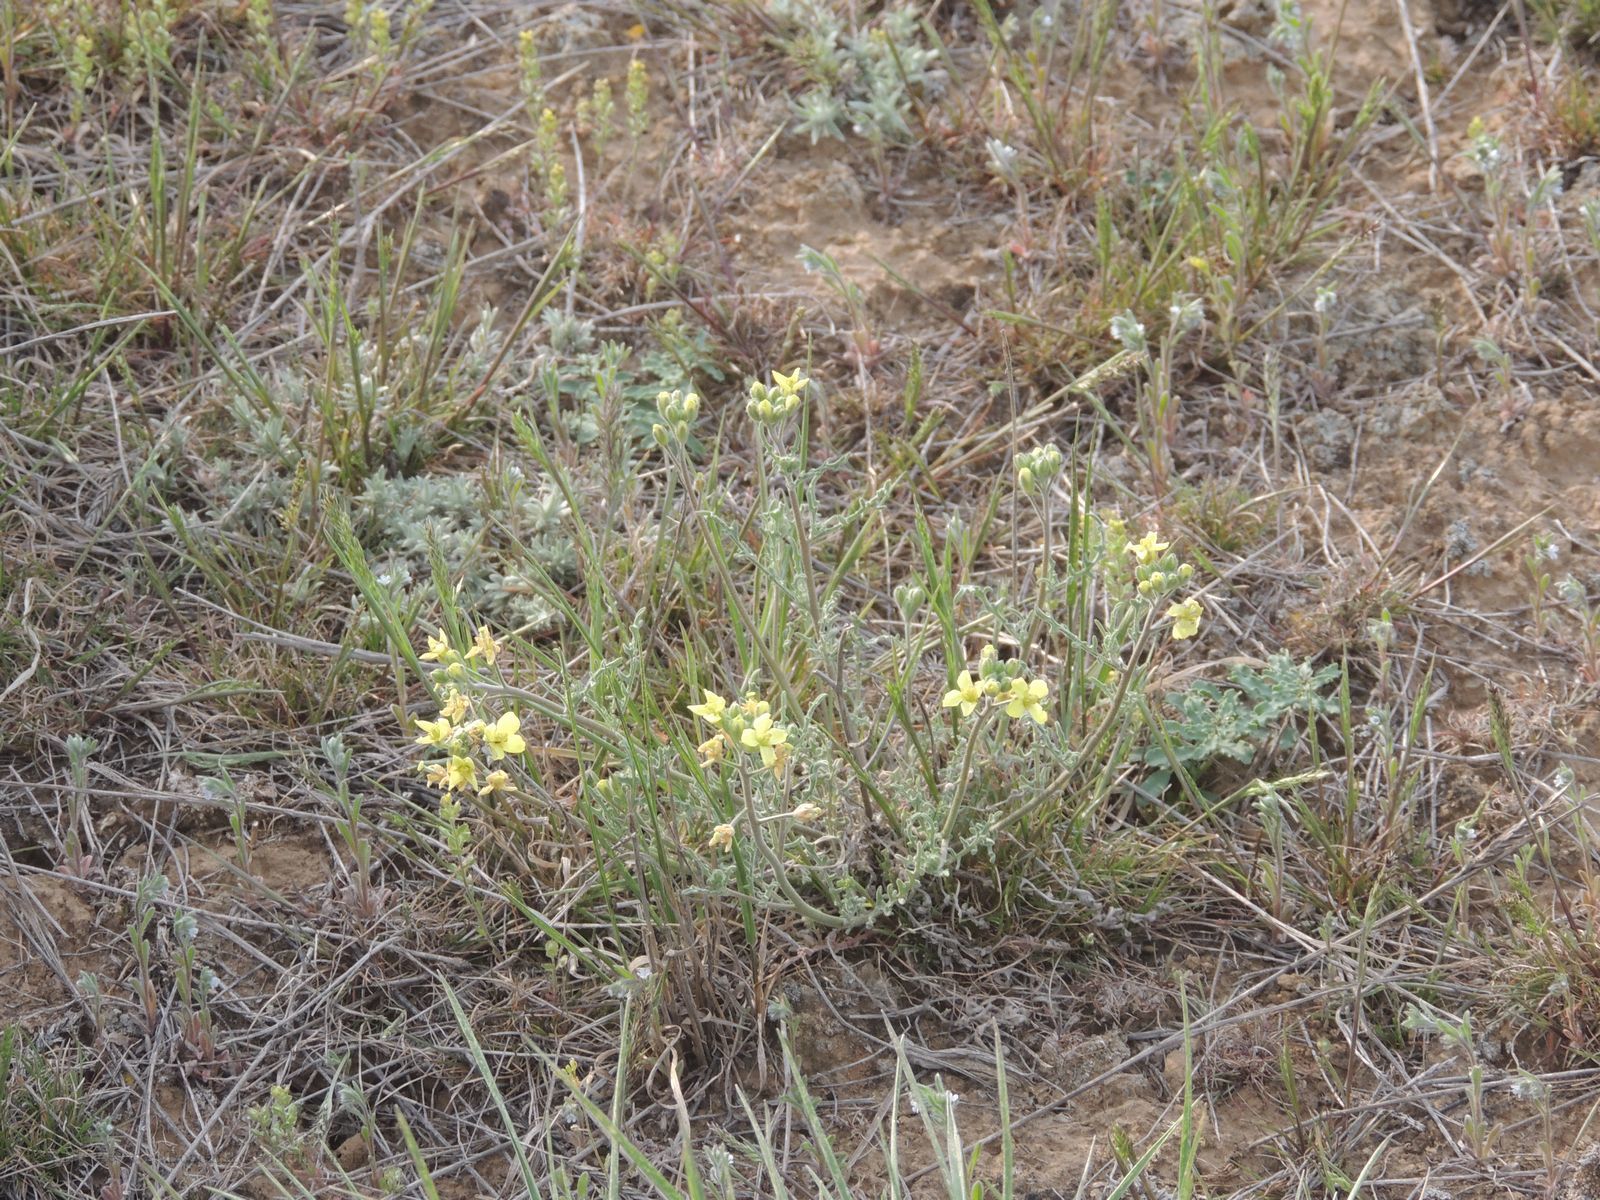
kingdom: Plantae
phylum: Tracheophyta
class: Magnoliopsida
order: Brassicales
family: Brassicaceae
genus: Sterigmostemum
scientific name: Sterigmostemum caspicum
